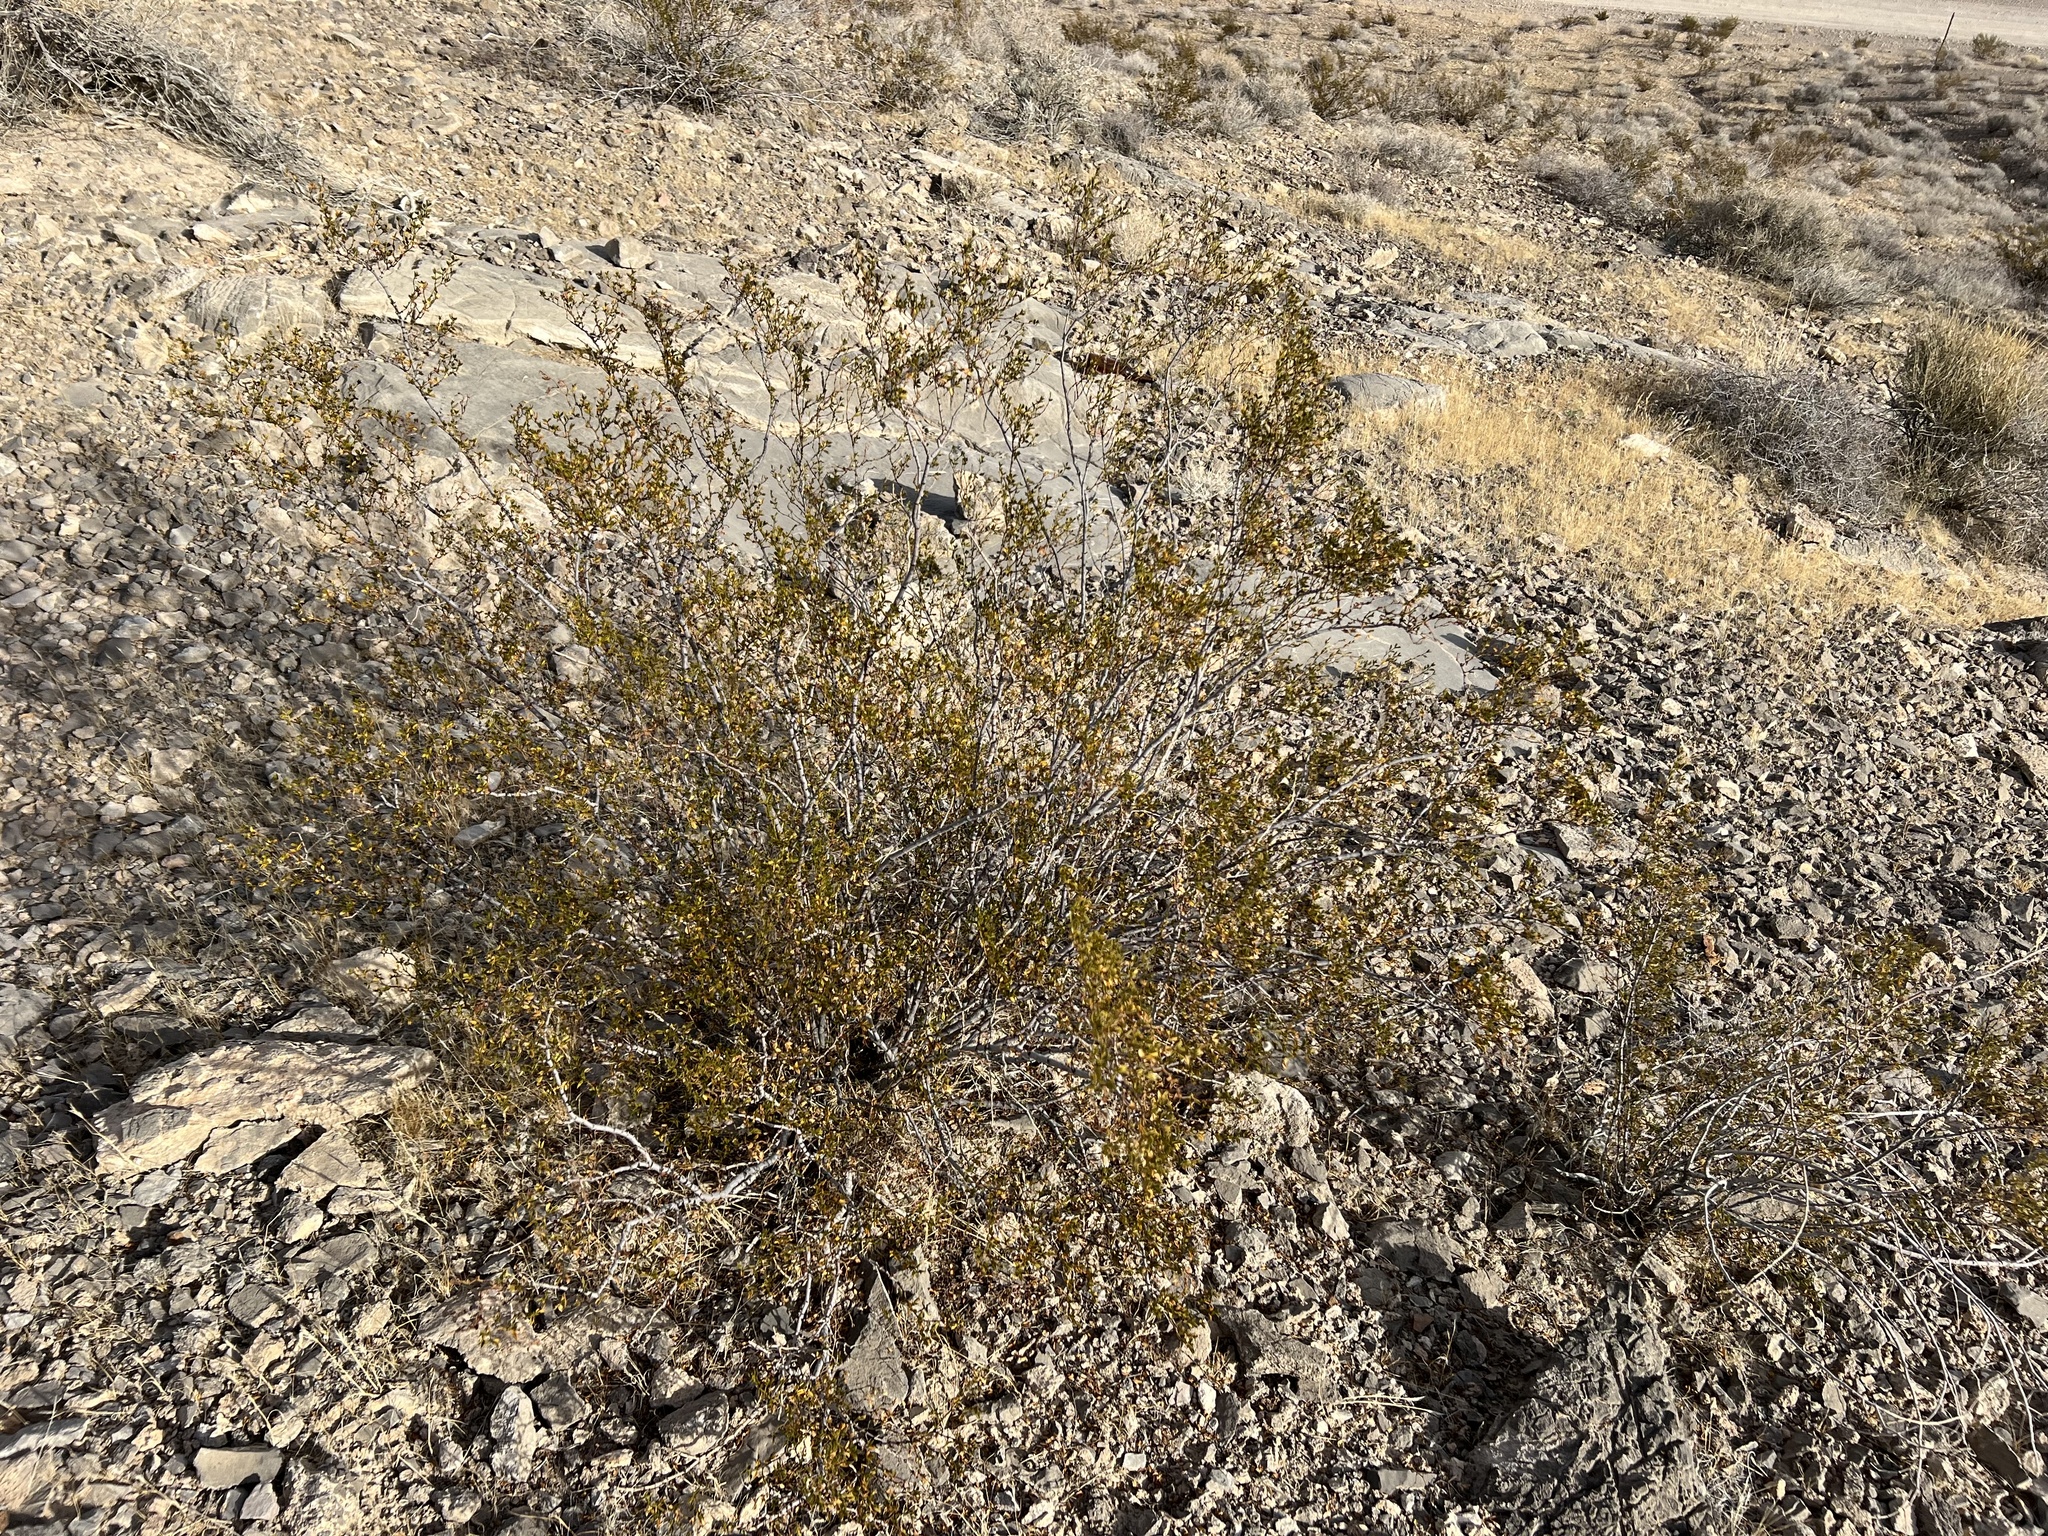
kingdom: Plantae
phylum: Tracheophyta
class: Magnoliopsida
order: Zygophyllales
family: Zygophyllaceae
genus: Larrea
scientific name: Larrea tridentata
